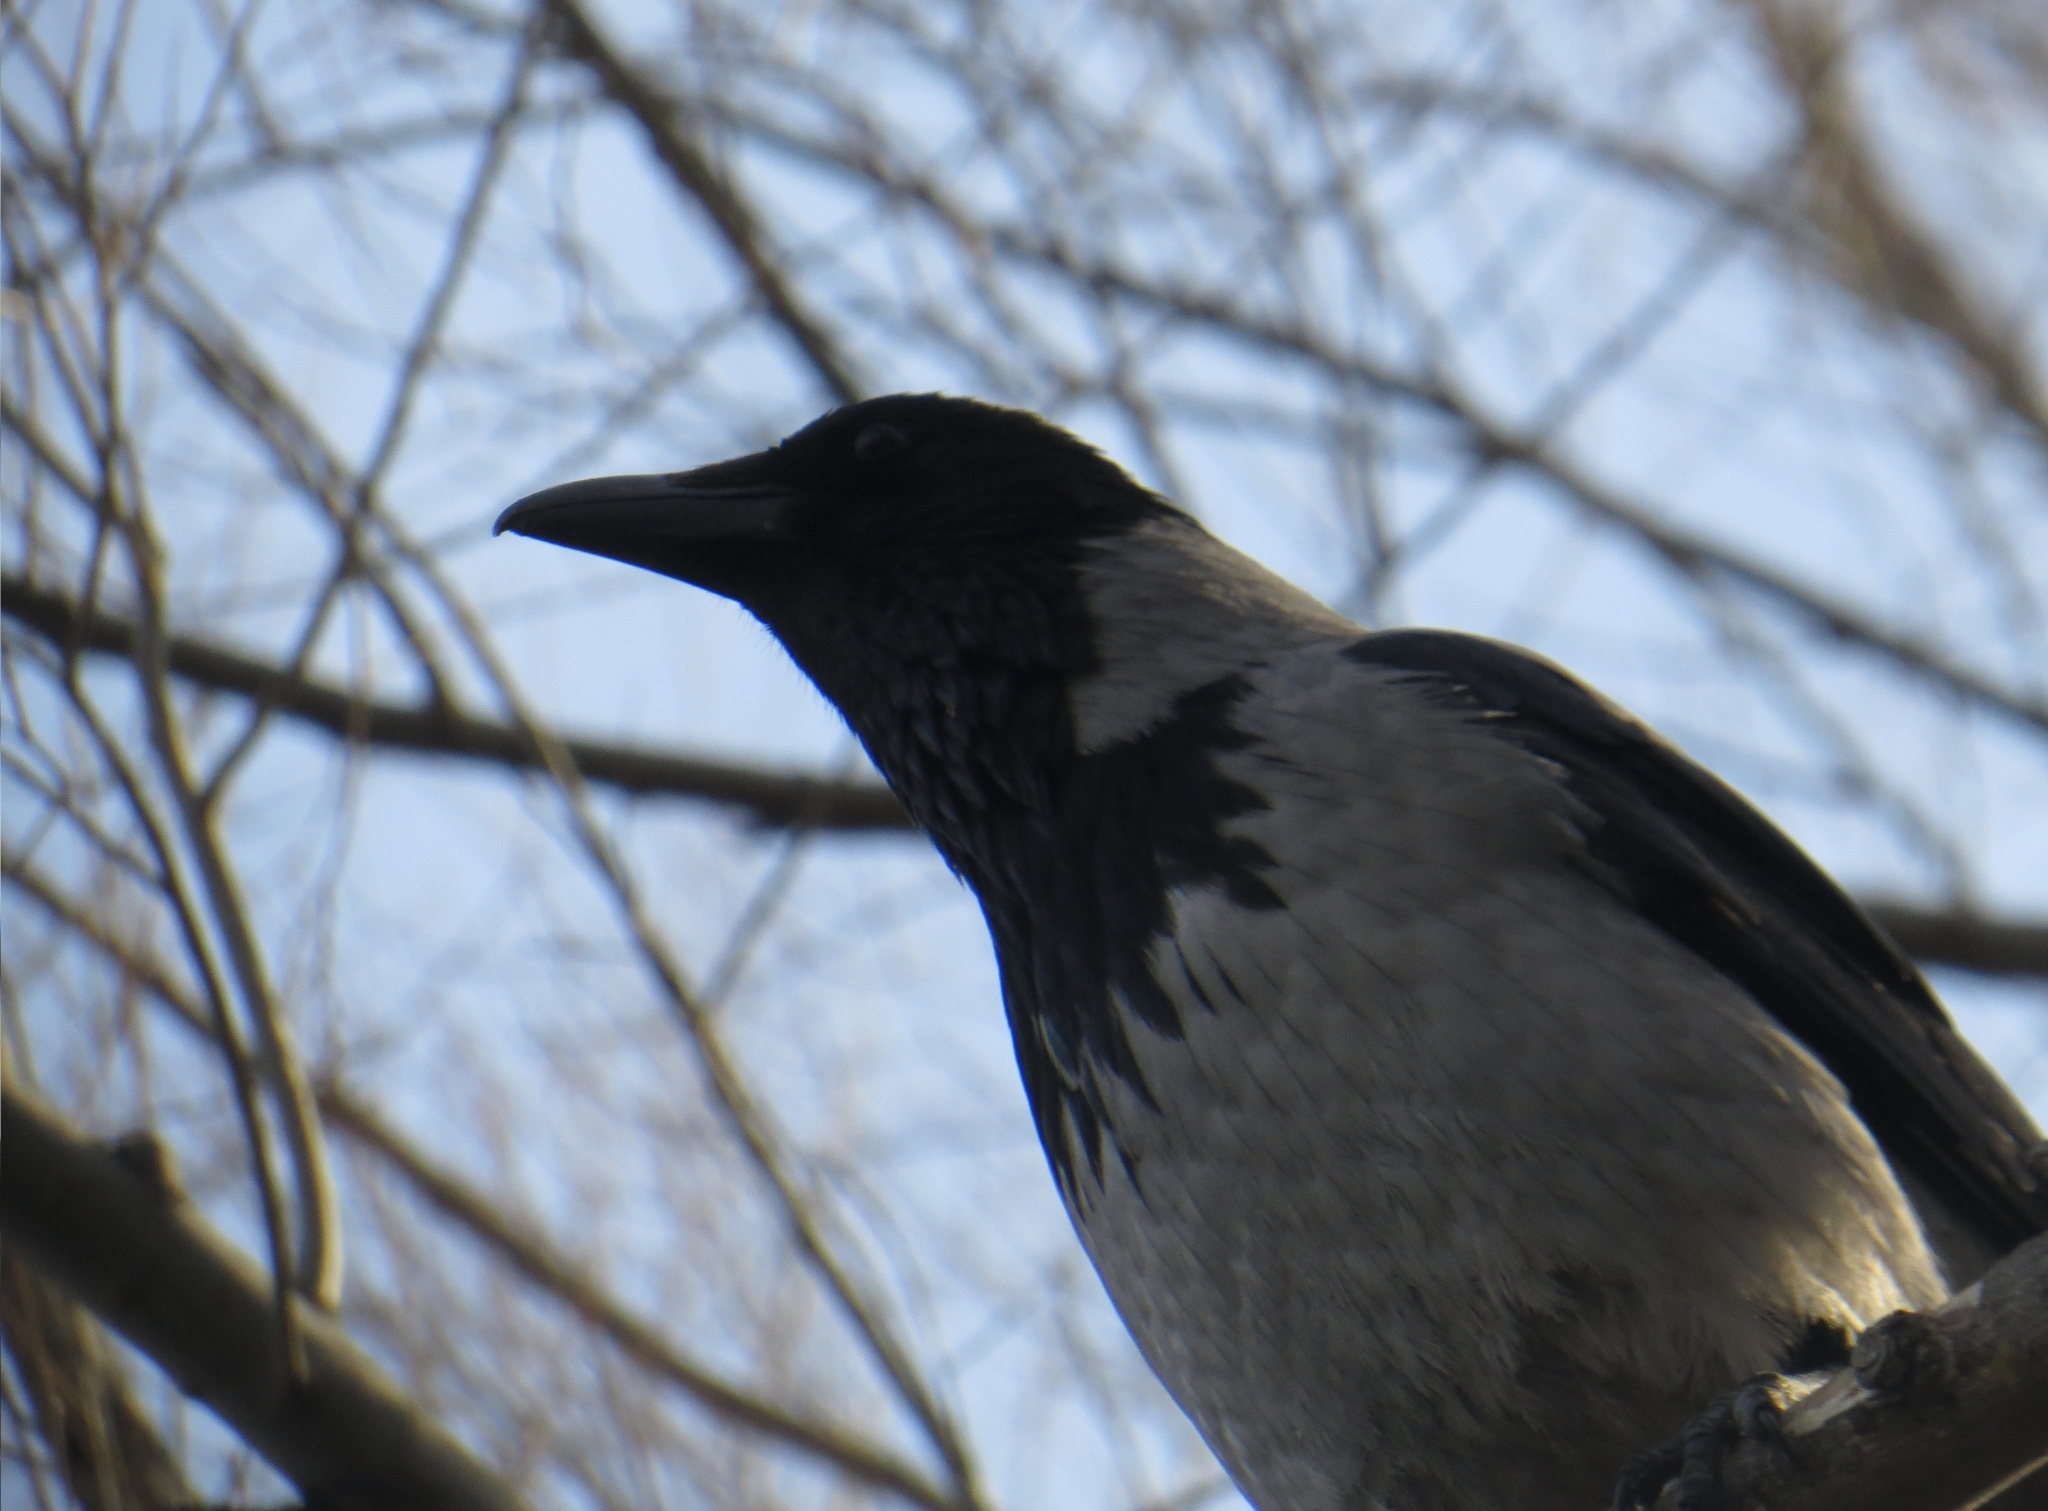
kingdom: Animalia
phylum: Chordata
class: Aves
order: Passeriformes
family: Corvidae
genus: Corvus
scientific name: Corvus cornix
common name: Hooded crow
